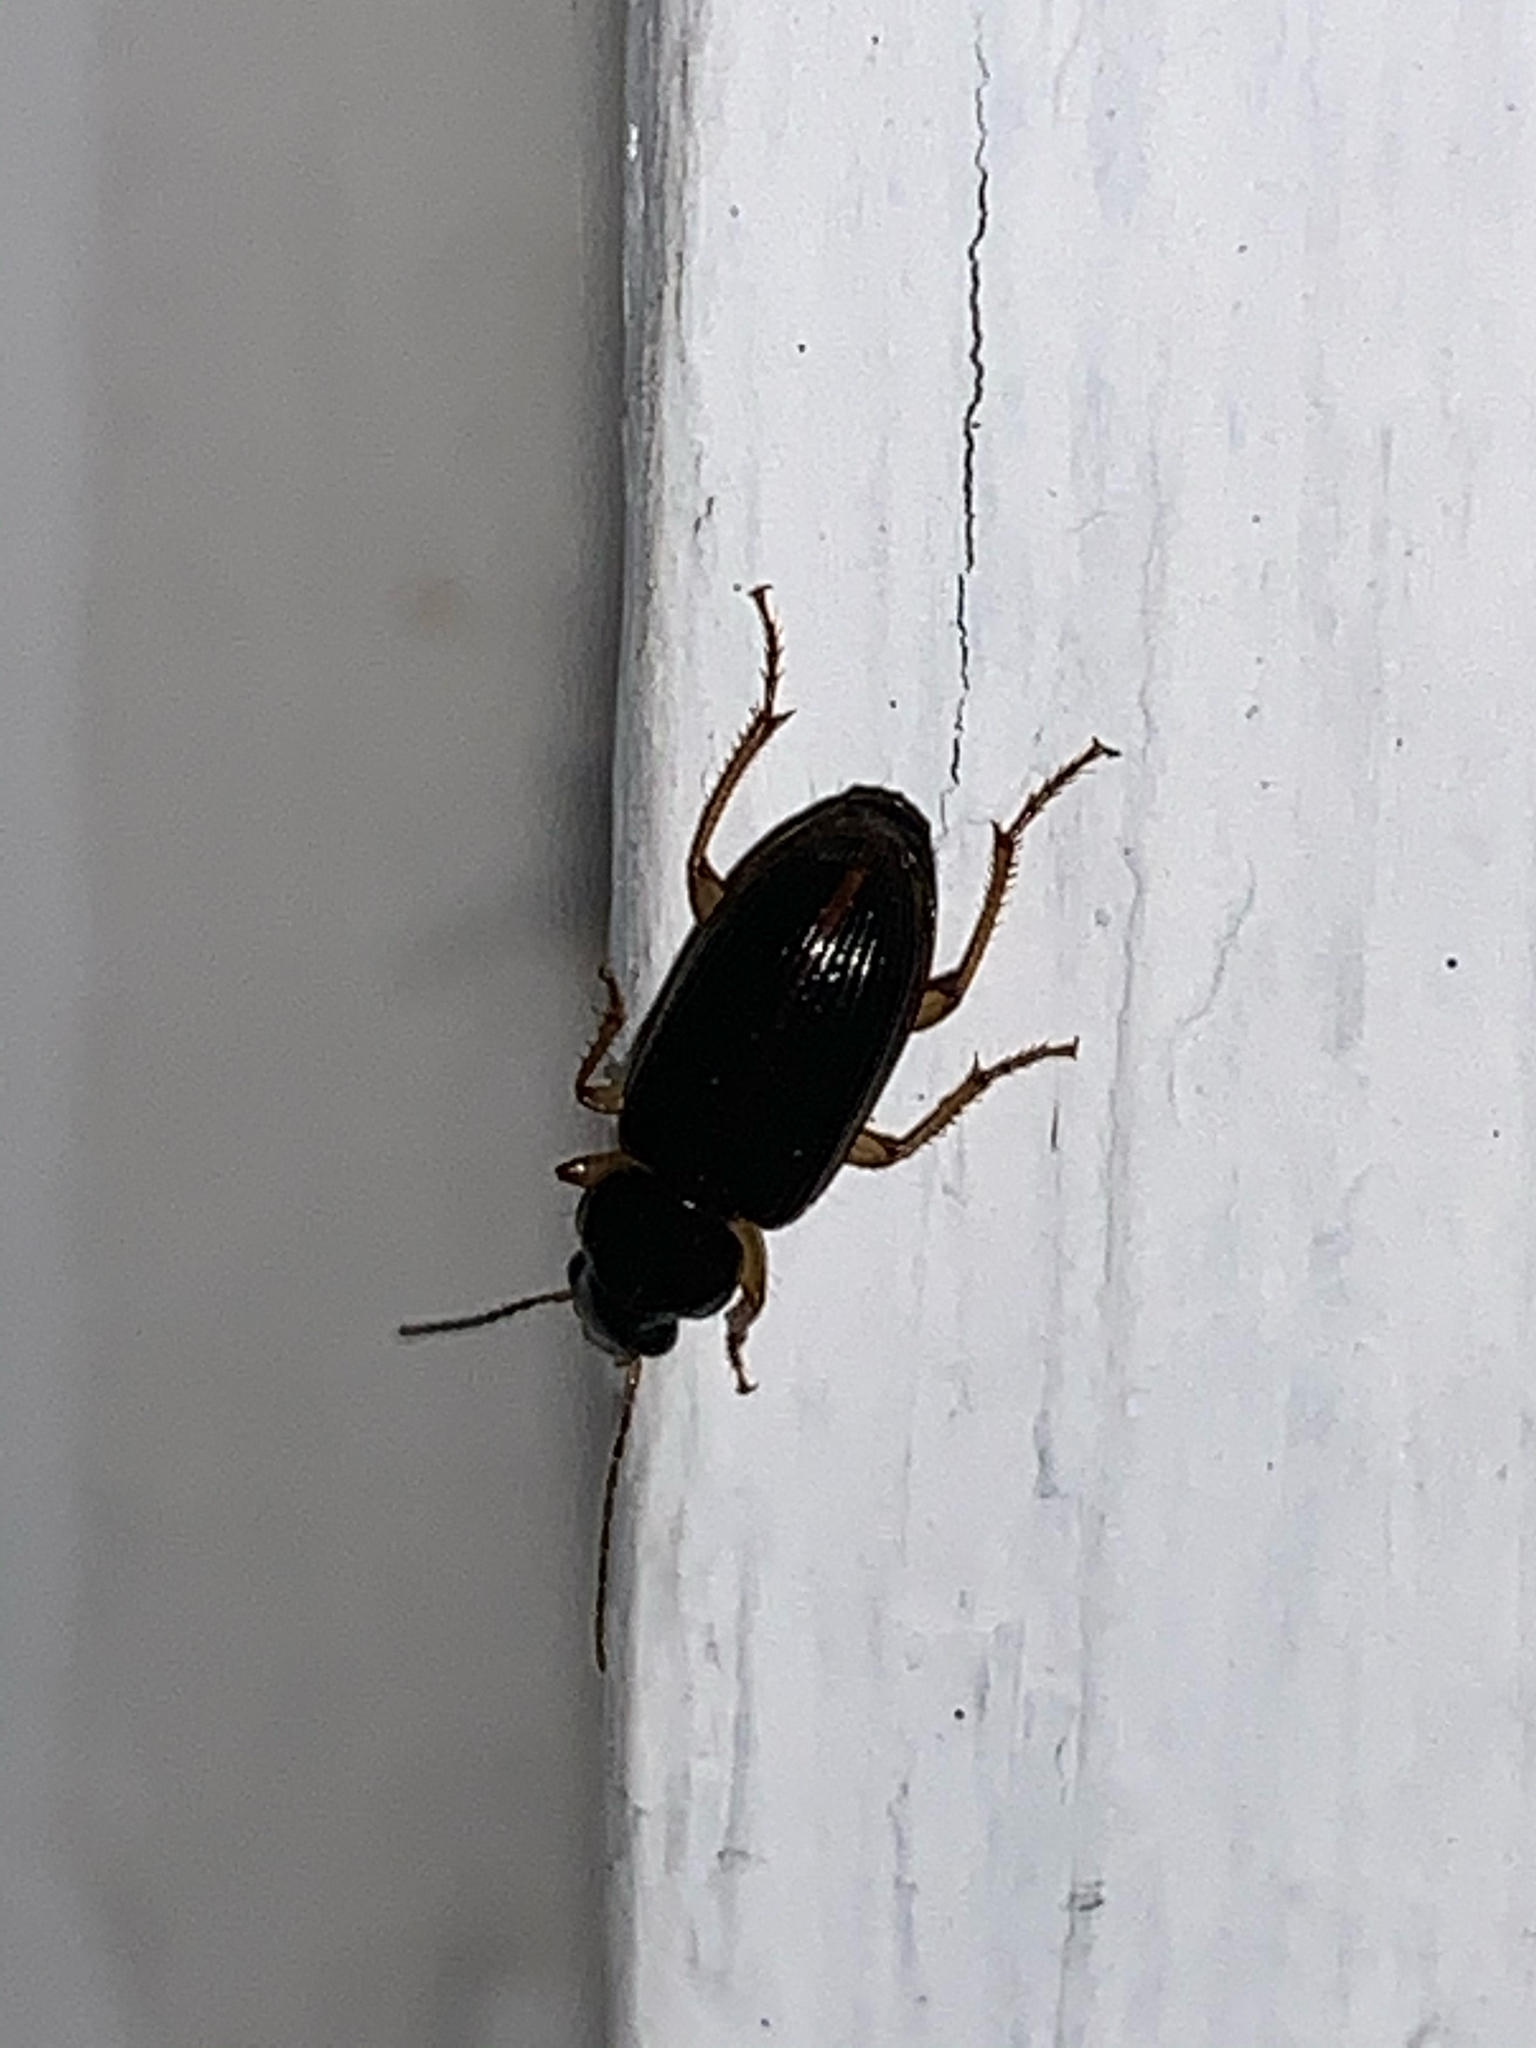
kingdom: Animalia
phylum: Arthropoda
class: Insecta
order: Coleoptera
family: Carabidae
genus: Stenolophus
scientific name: Stenolophus
